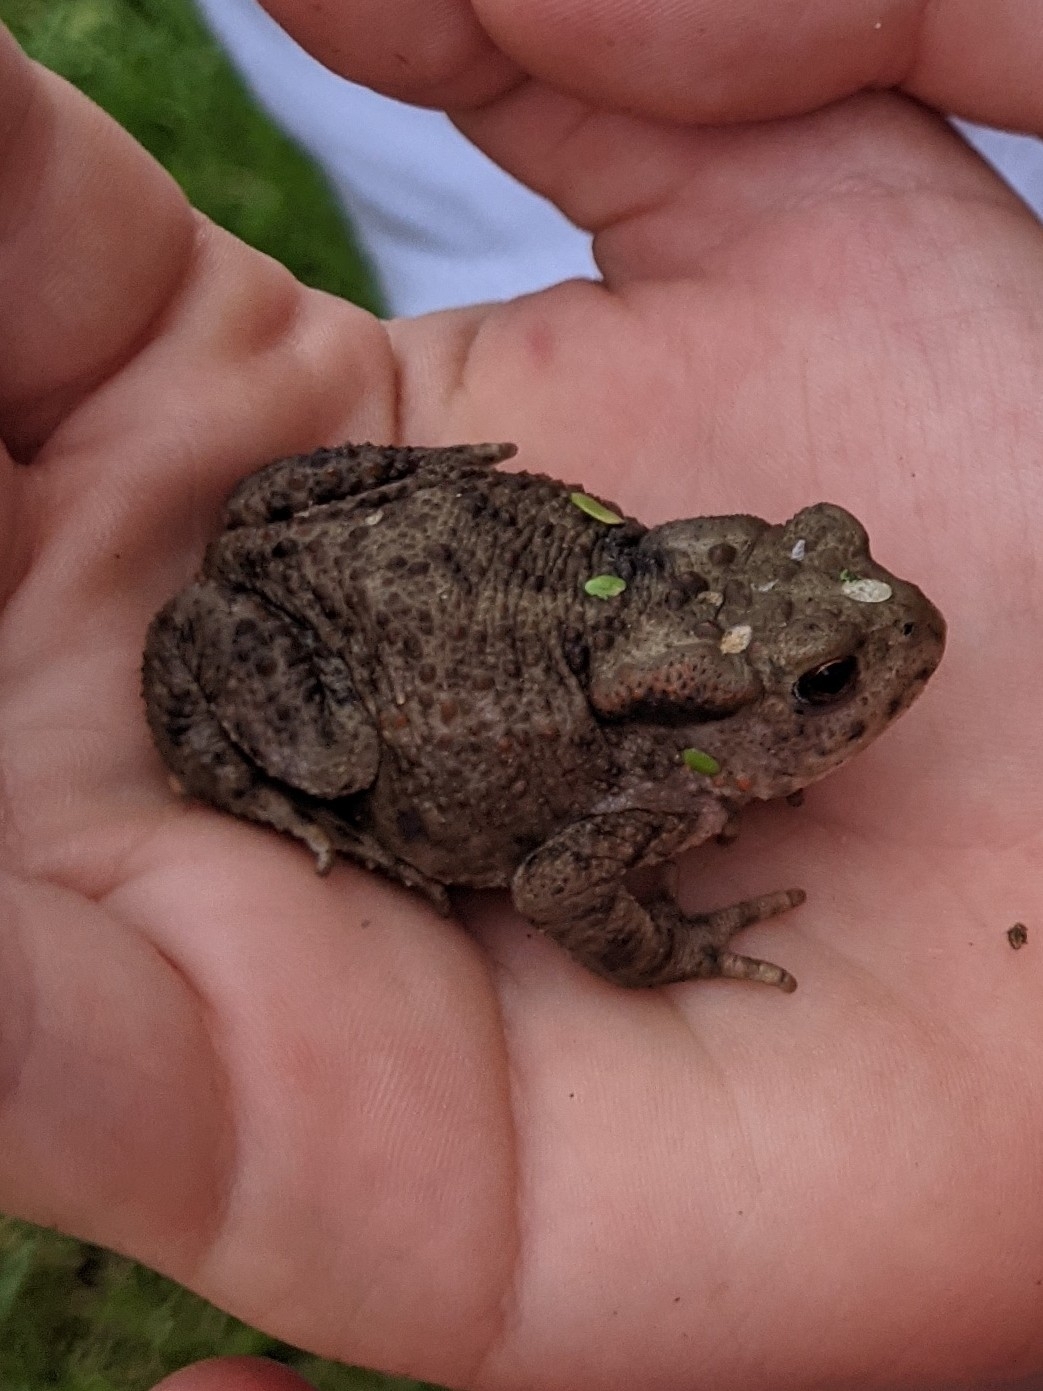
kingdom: Animalia
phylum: Chordata
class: Amphibia
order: Anura
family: Bufonidae
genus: Bufo
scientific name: Bufo bufo
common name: Common toad
